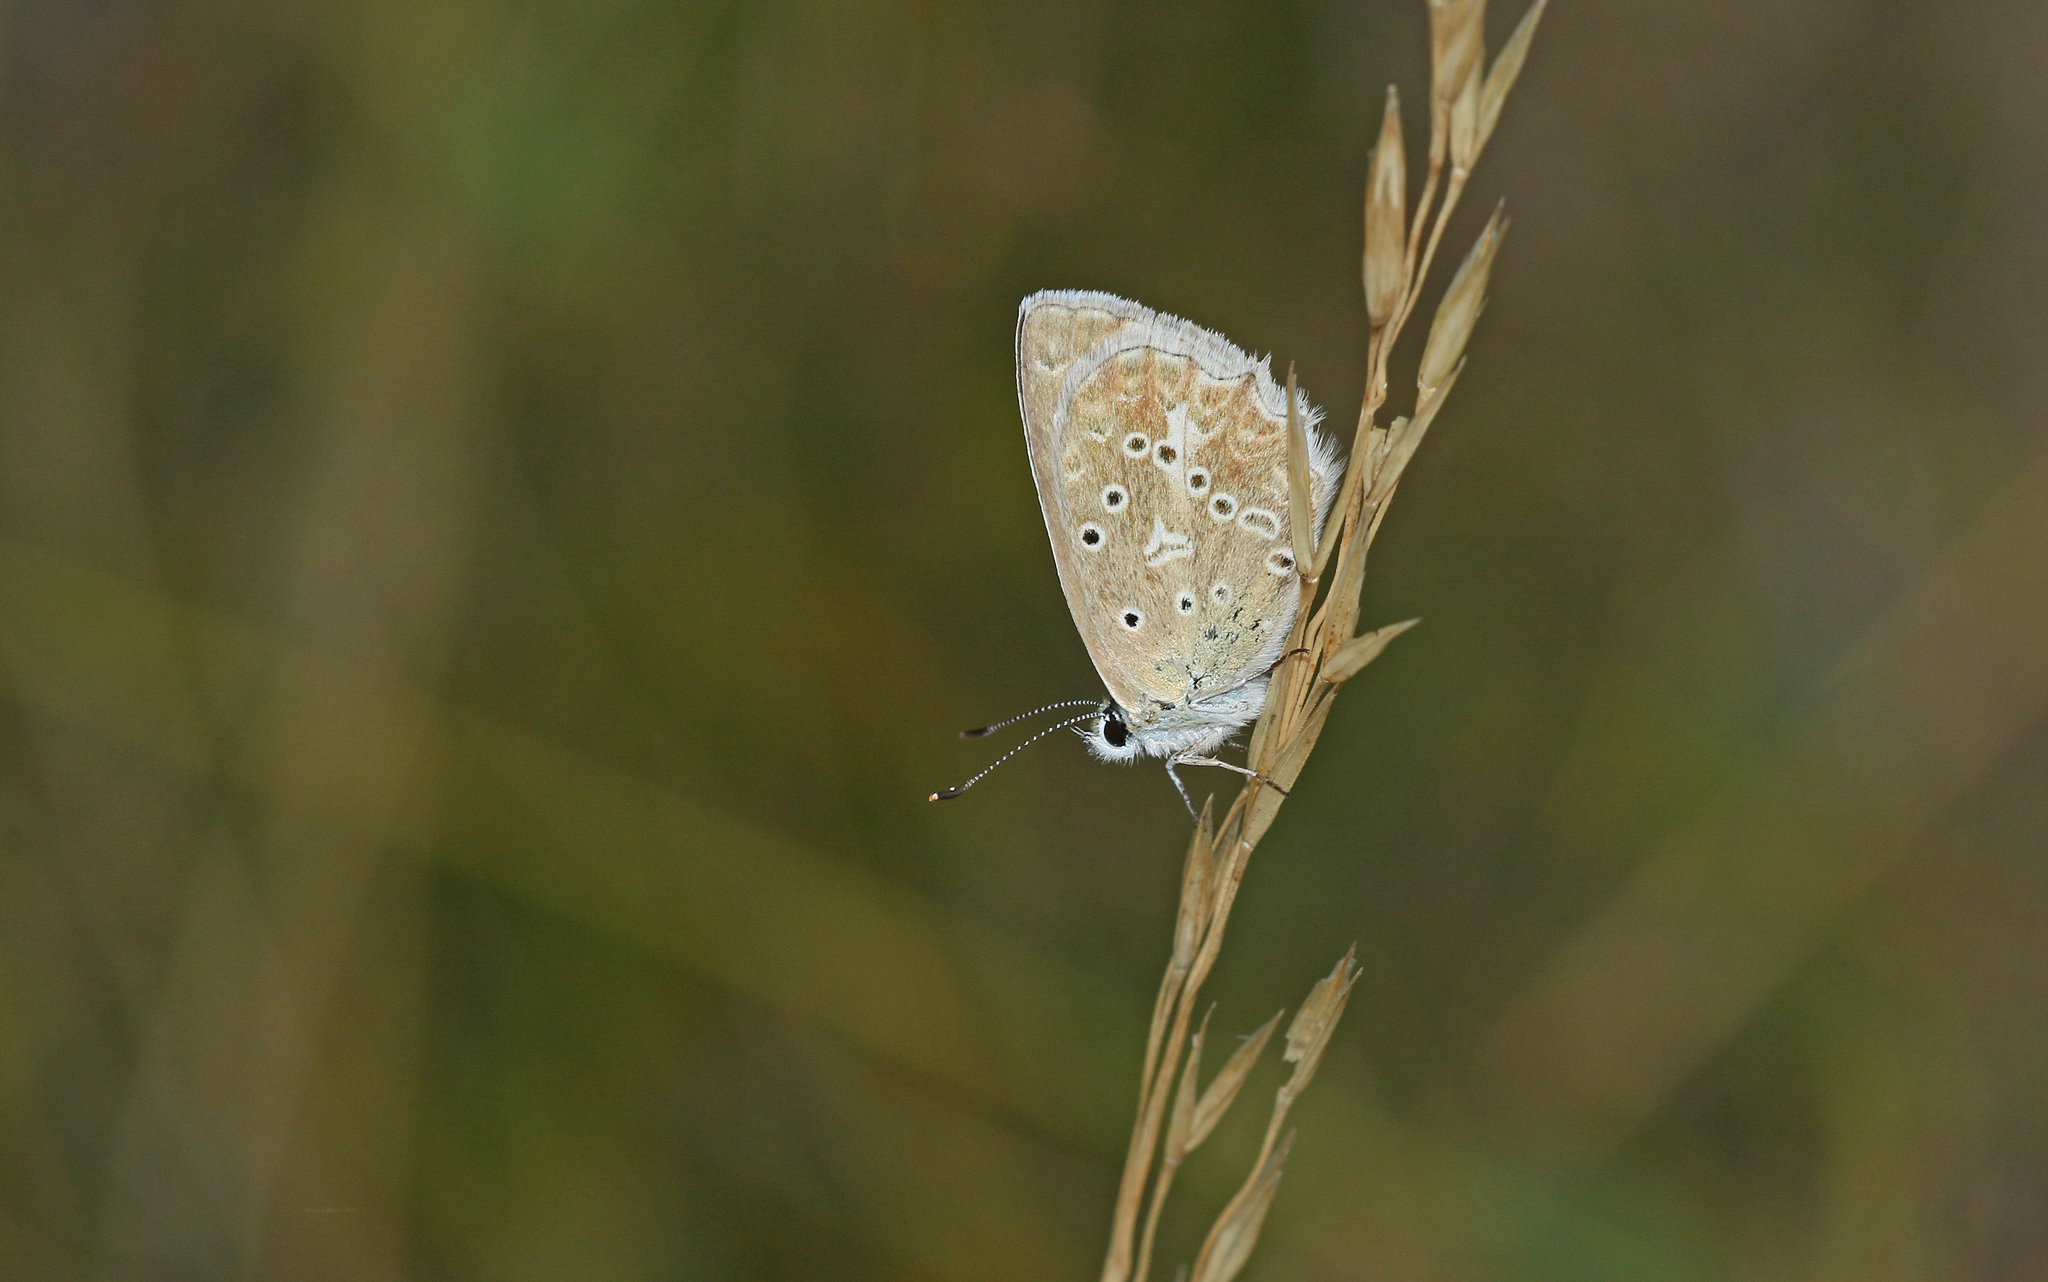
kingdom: Animalia
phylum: Arthropoda
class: Insecta
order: Lepidoptera
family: Lycaenidae
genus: Polyommatus
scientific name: Polyommatus daphnis
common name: Meleager's blue
